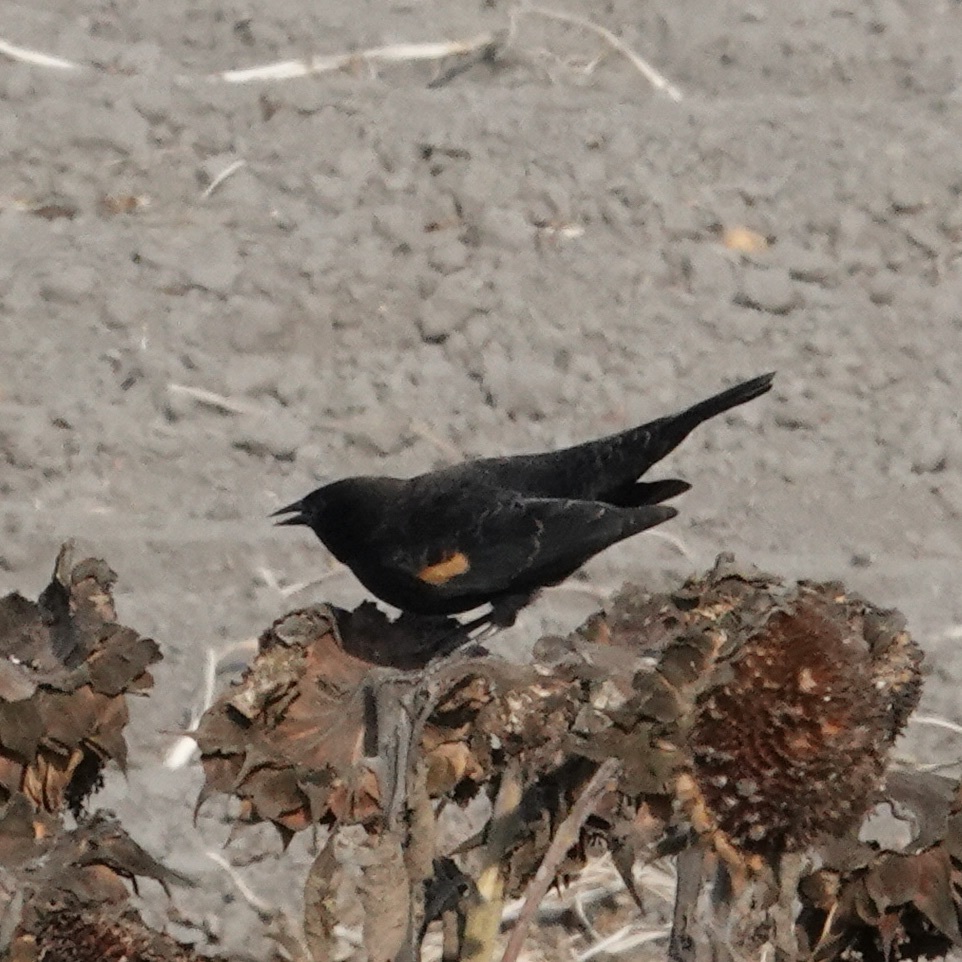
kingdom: Animalia
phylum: Chordata
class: Aves
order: Passeriformes
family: Icteridae
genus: Agelaius
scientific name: Agelaius phoeniceus
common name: Red-winged blackbird
